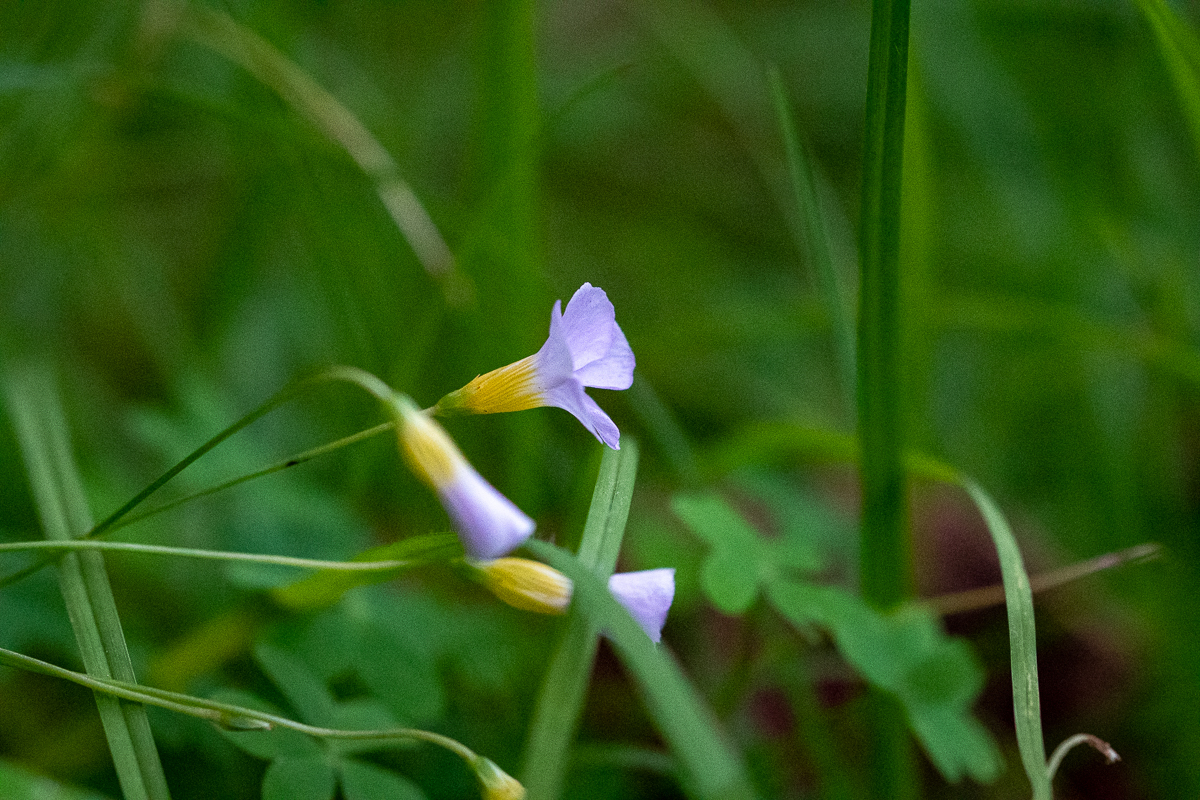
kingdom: Plantae
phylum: Tracheophyta
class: Magnoliopsida
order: Oxalidales
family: Oxalidaceae
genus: Oxalis
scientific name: Oxalis caprina
